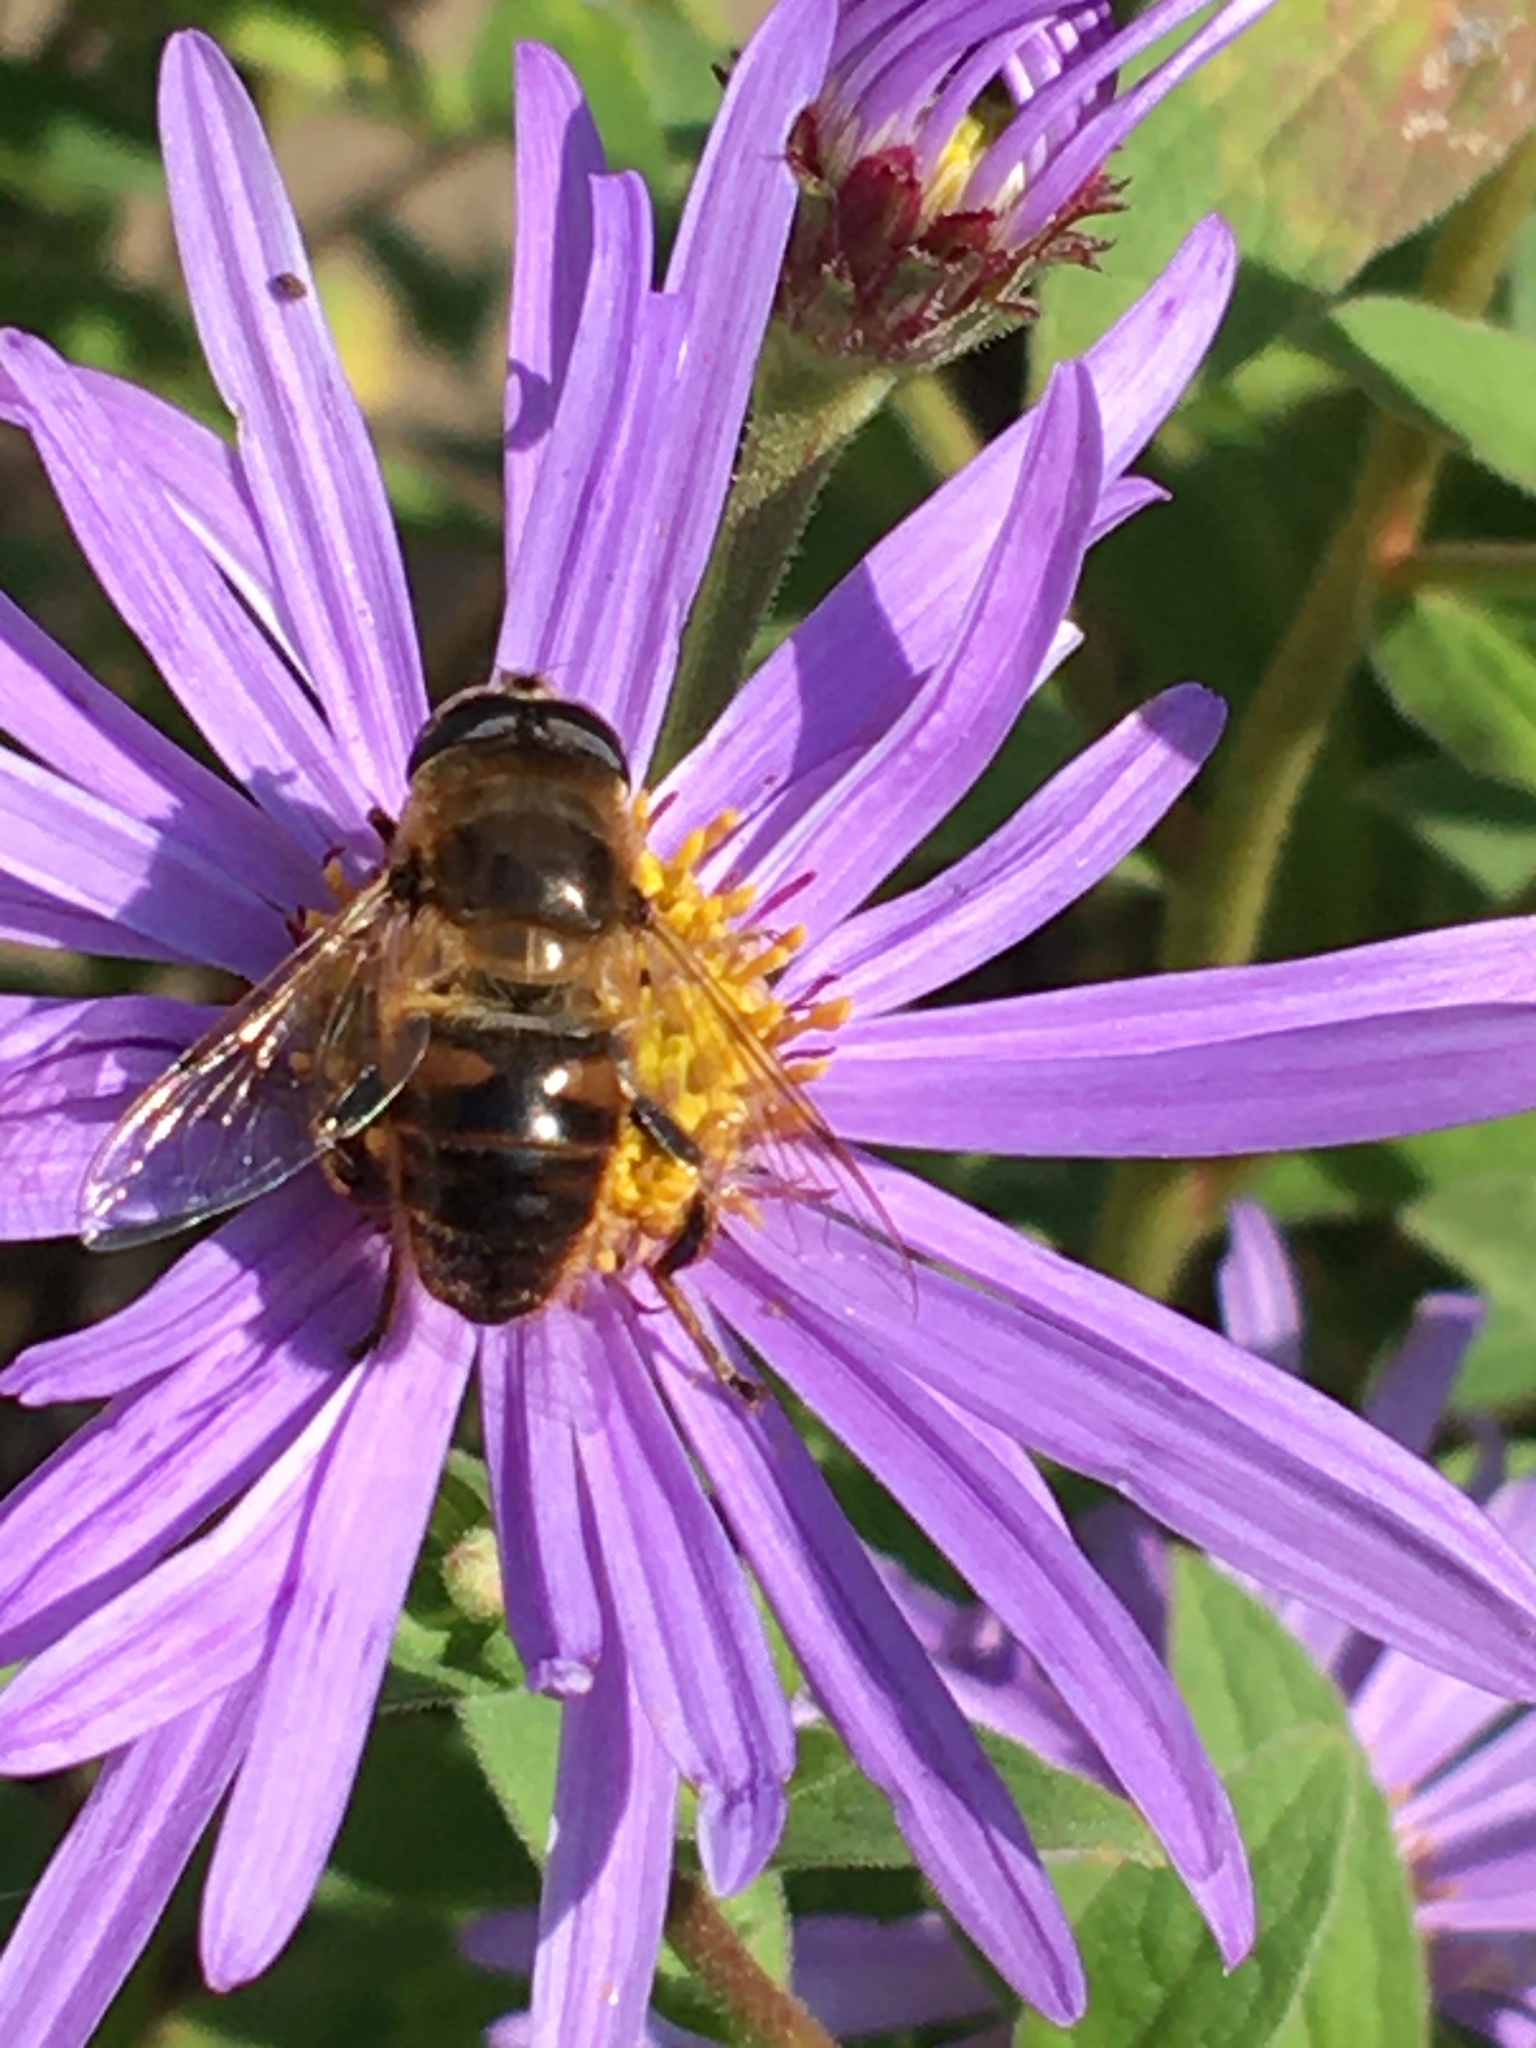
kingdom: Animalia
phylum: Arthropoda
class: Insecta
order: Diptera
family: Syrphidae
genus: Eristalis
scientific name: Eristalis tenax
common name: Drone fly
